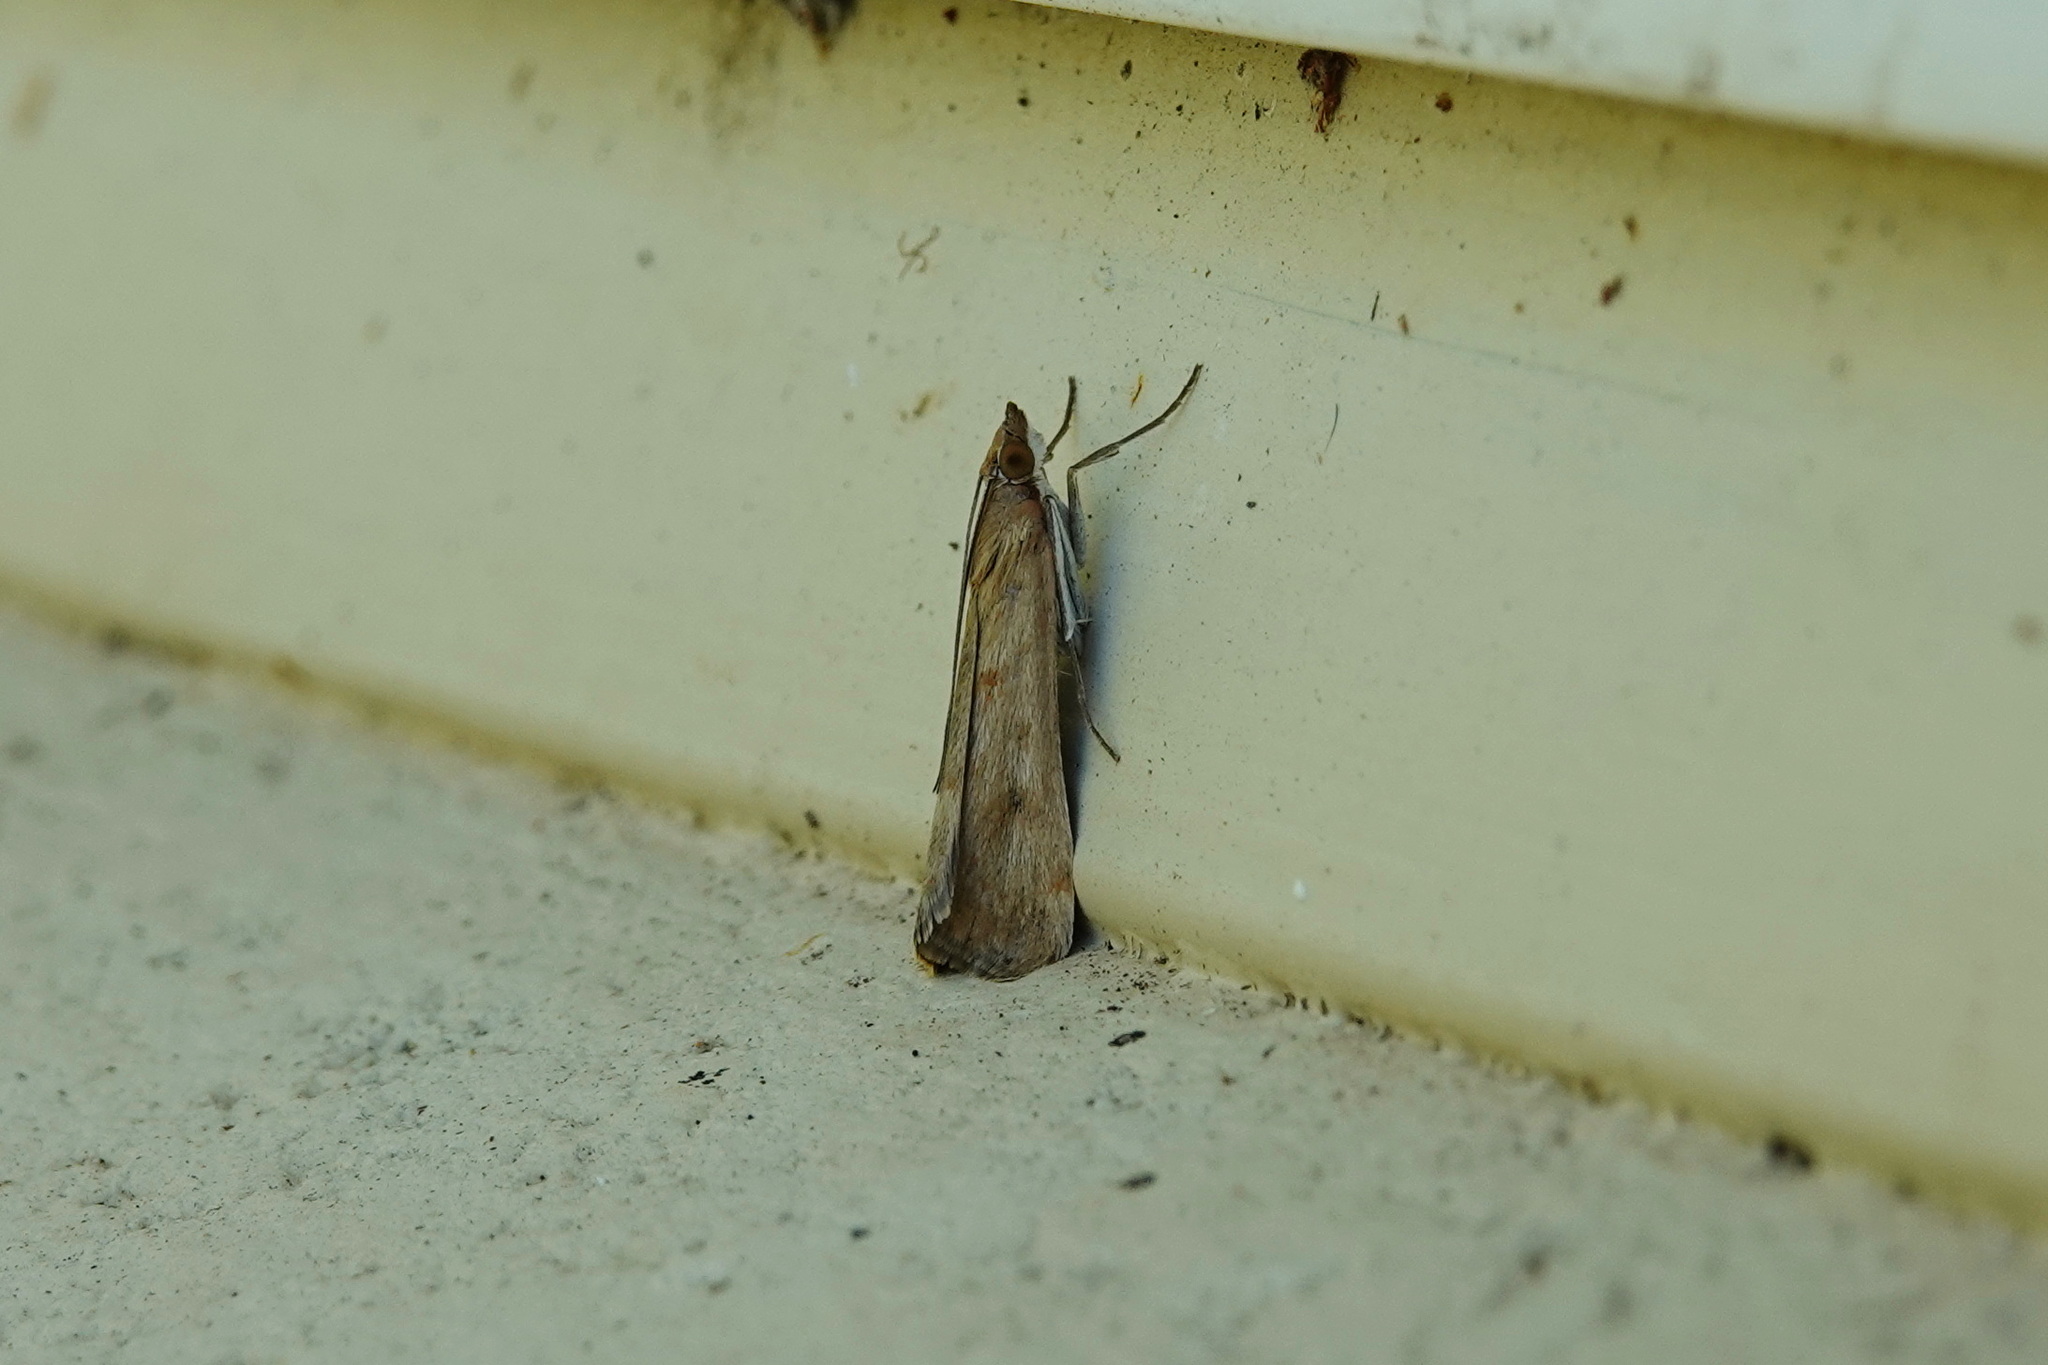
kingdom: Animalia
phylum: Arthropoda
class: Insecta
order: Lepidoptera
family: Crambidae
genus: Achyra
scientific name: Achyra affinitalis
